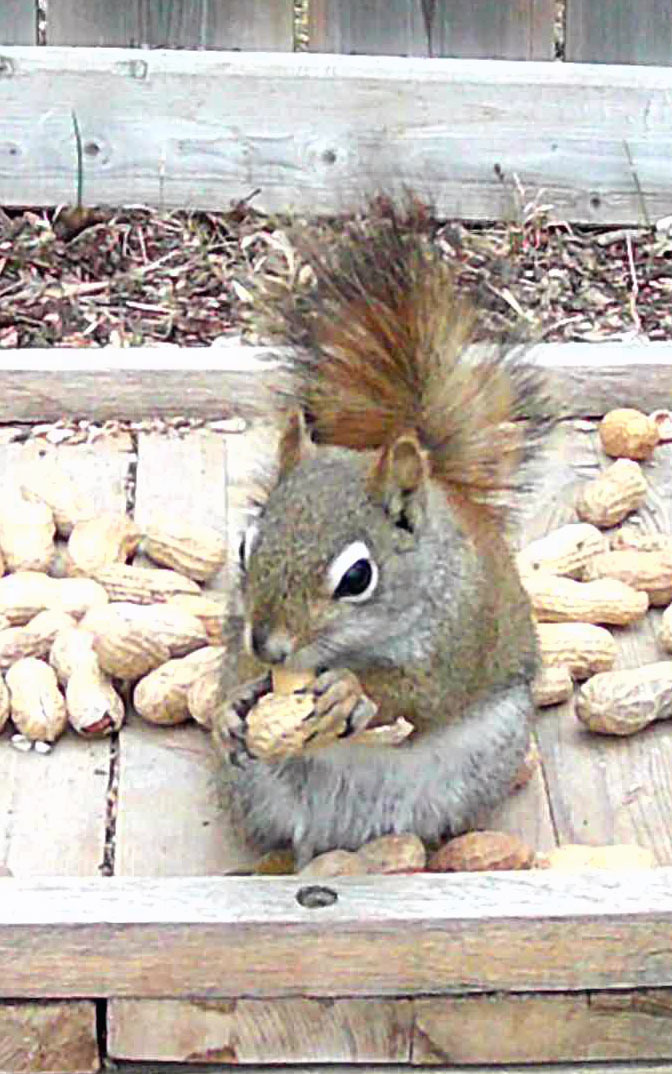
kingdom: Animalia
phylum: Chordata
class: Mammalia
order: Rodentia
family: Sciuridae
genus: Tamiasciurus
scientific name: Tamiasciurus hudsonicus
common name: Red squirrel
